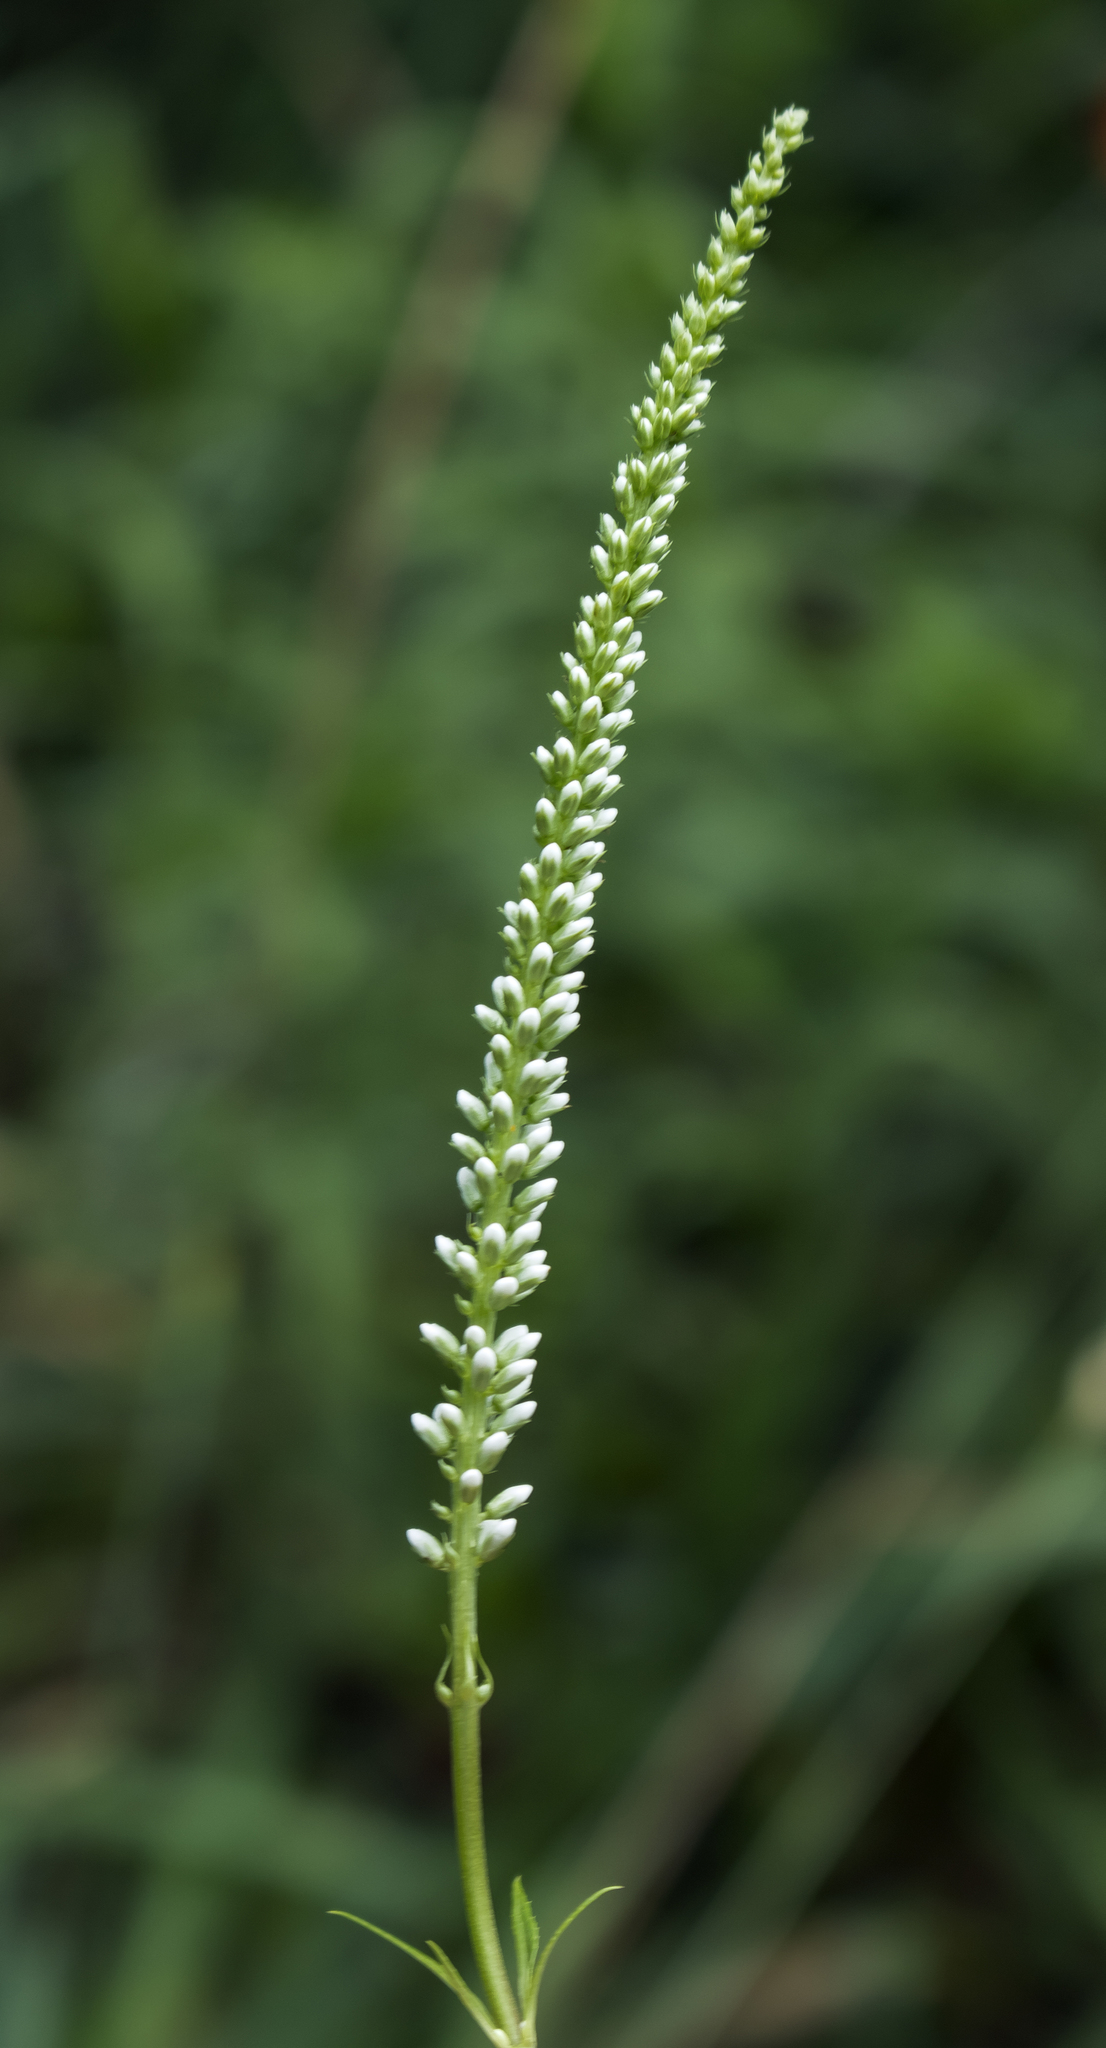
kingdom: Plantae
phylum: Tracheophyta
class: Magnoliopsida
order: Lamiales
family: Plantaginaceae
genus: Veronicastrum
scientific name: Veronicastrum virginicum
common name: Blackroot
